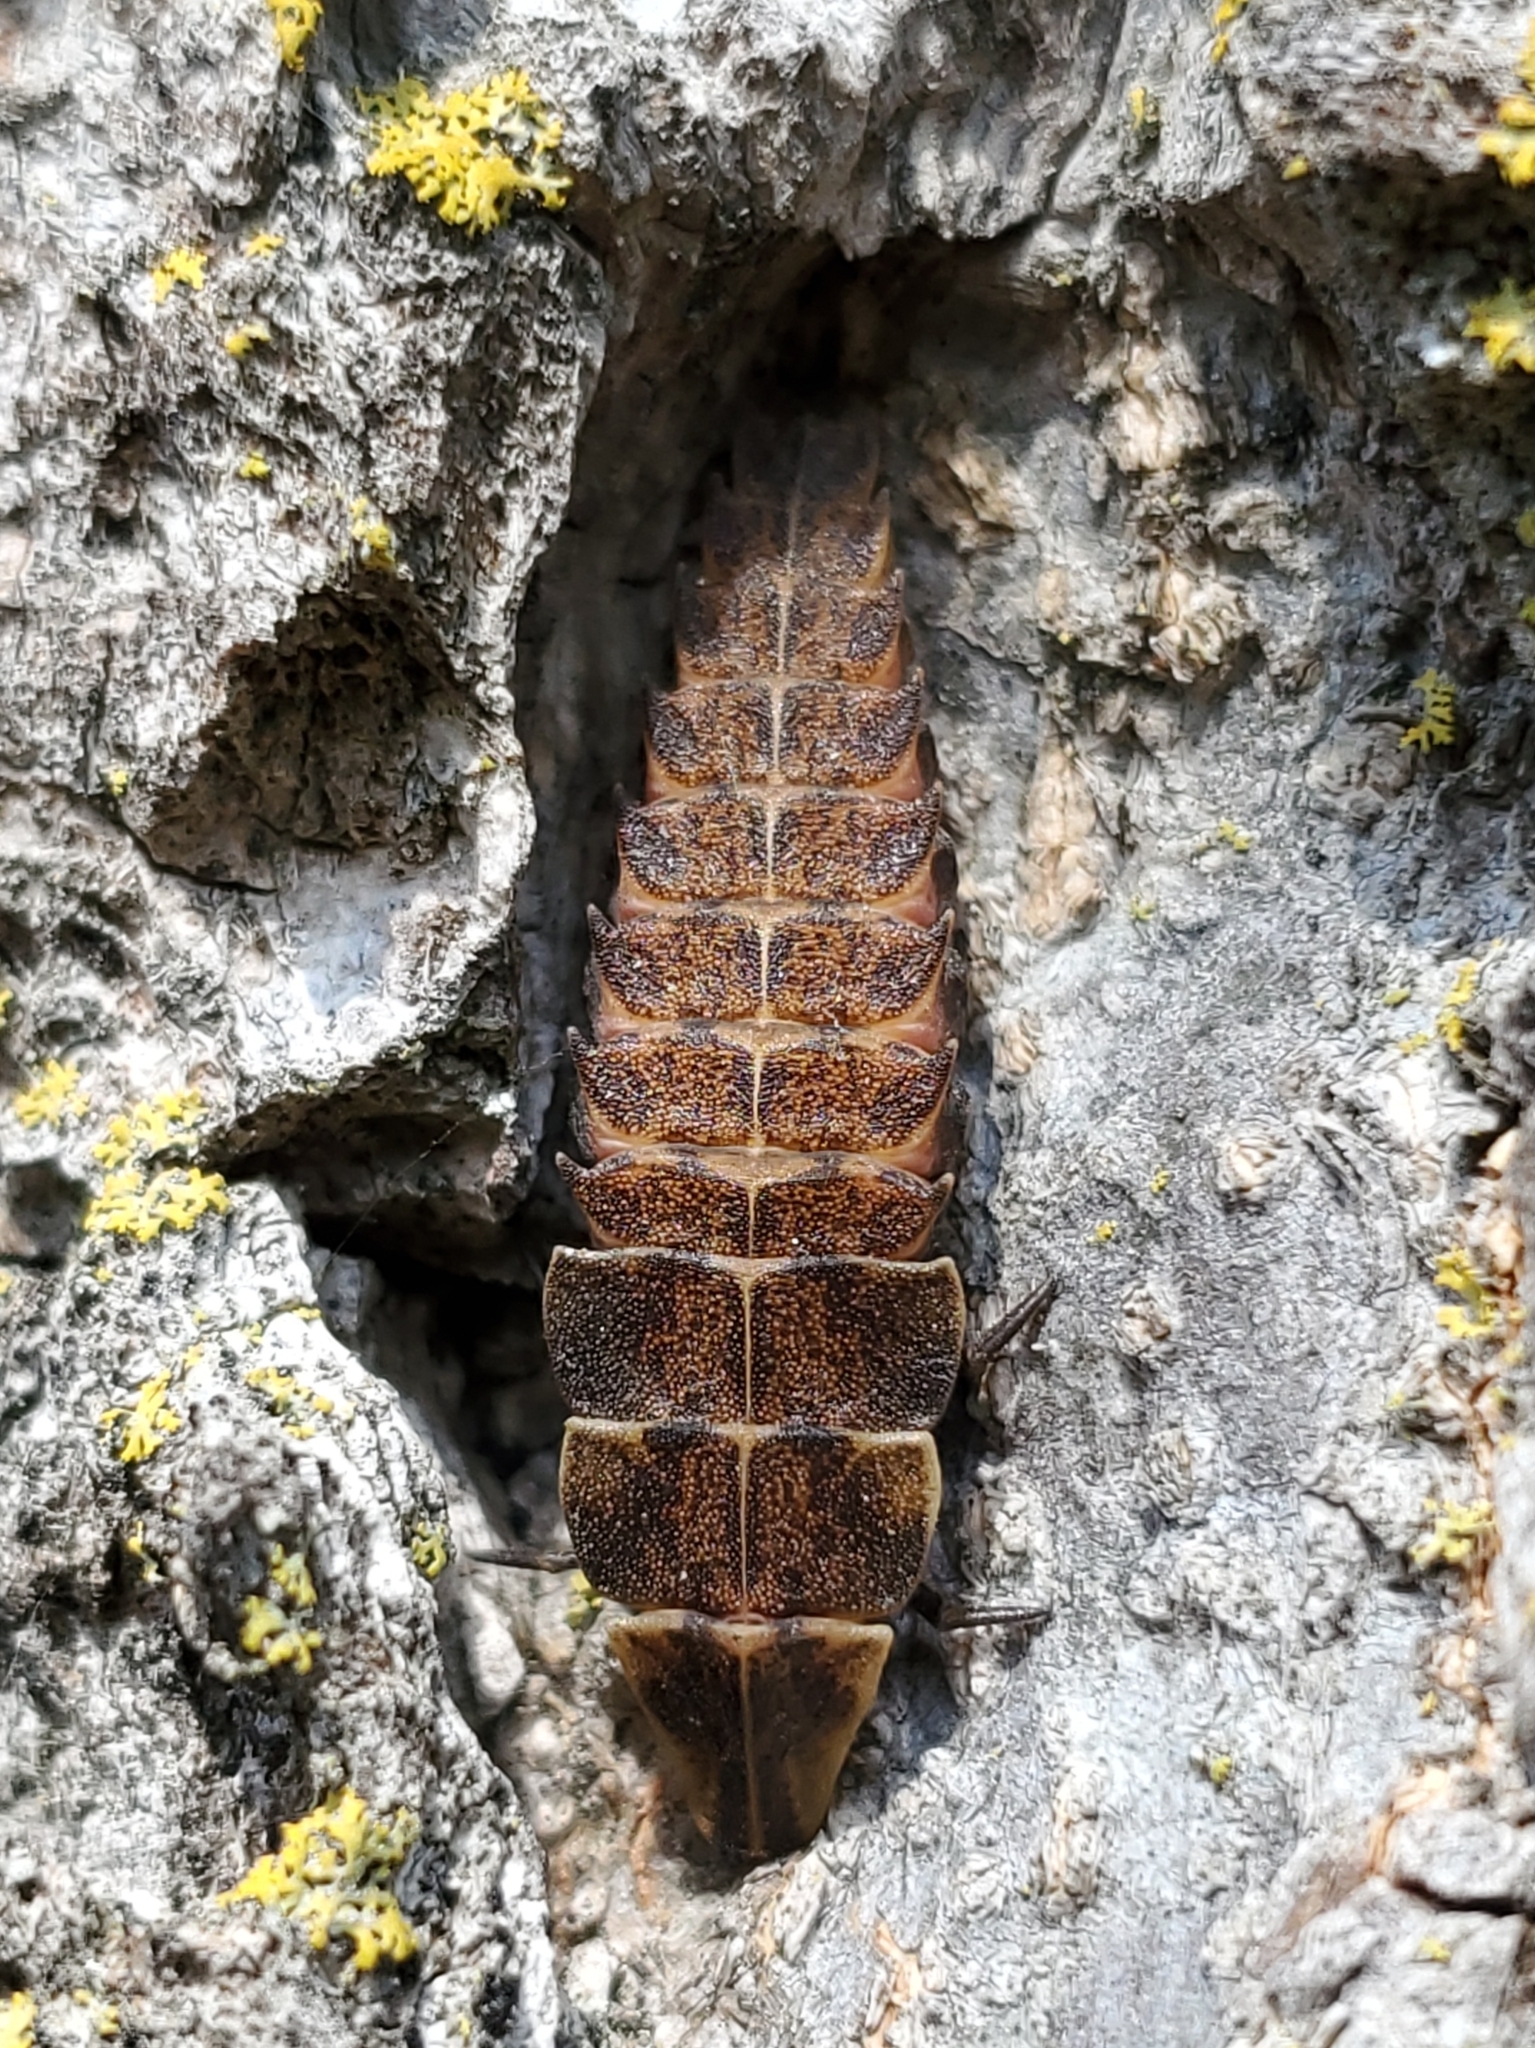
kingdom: Animalia
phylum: Arthropoda
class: Insecta
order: Coleoptera
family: Lampyridae
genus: Pyractomena
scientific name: Pyractomena borealis
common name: Northern firefly
